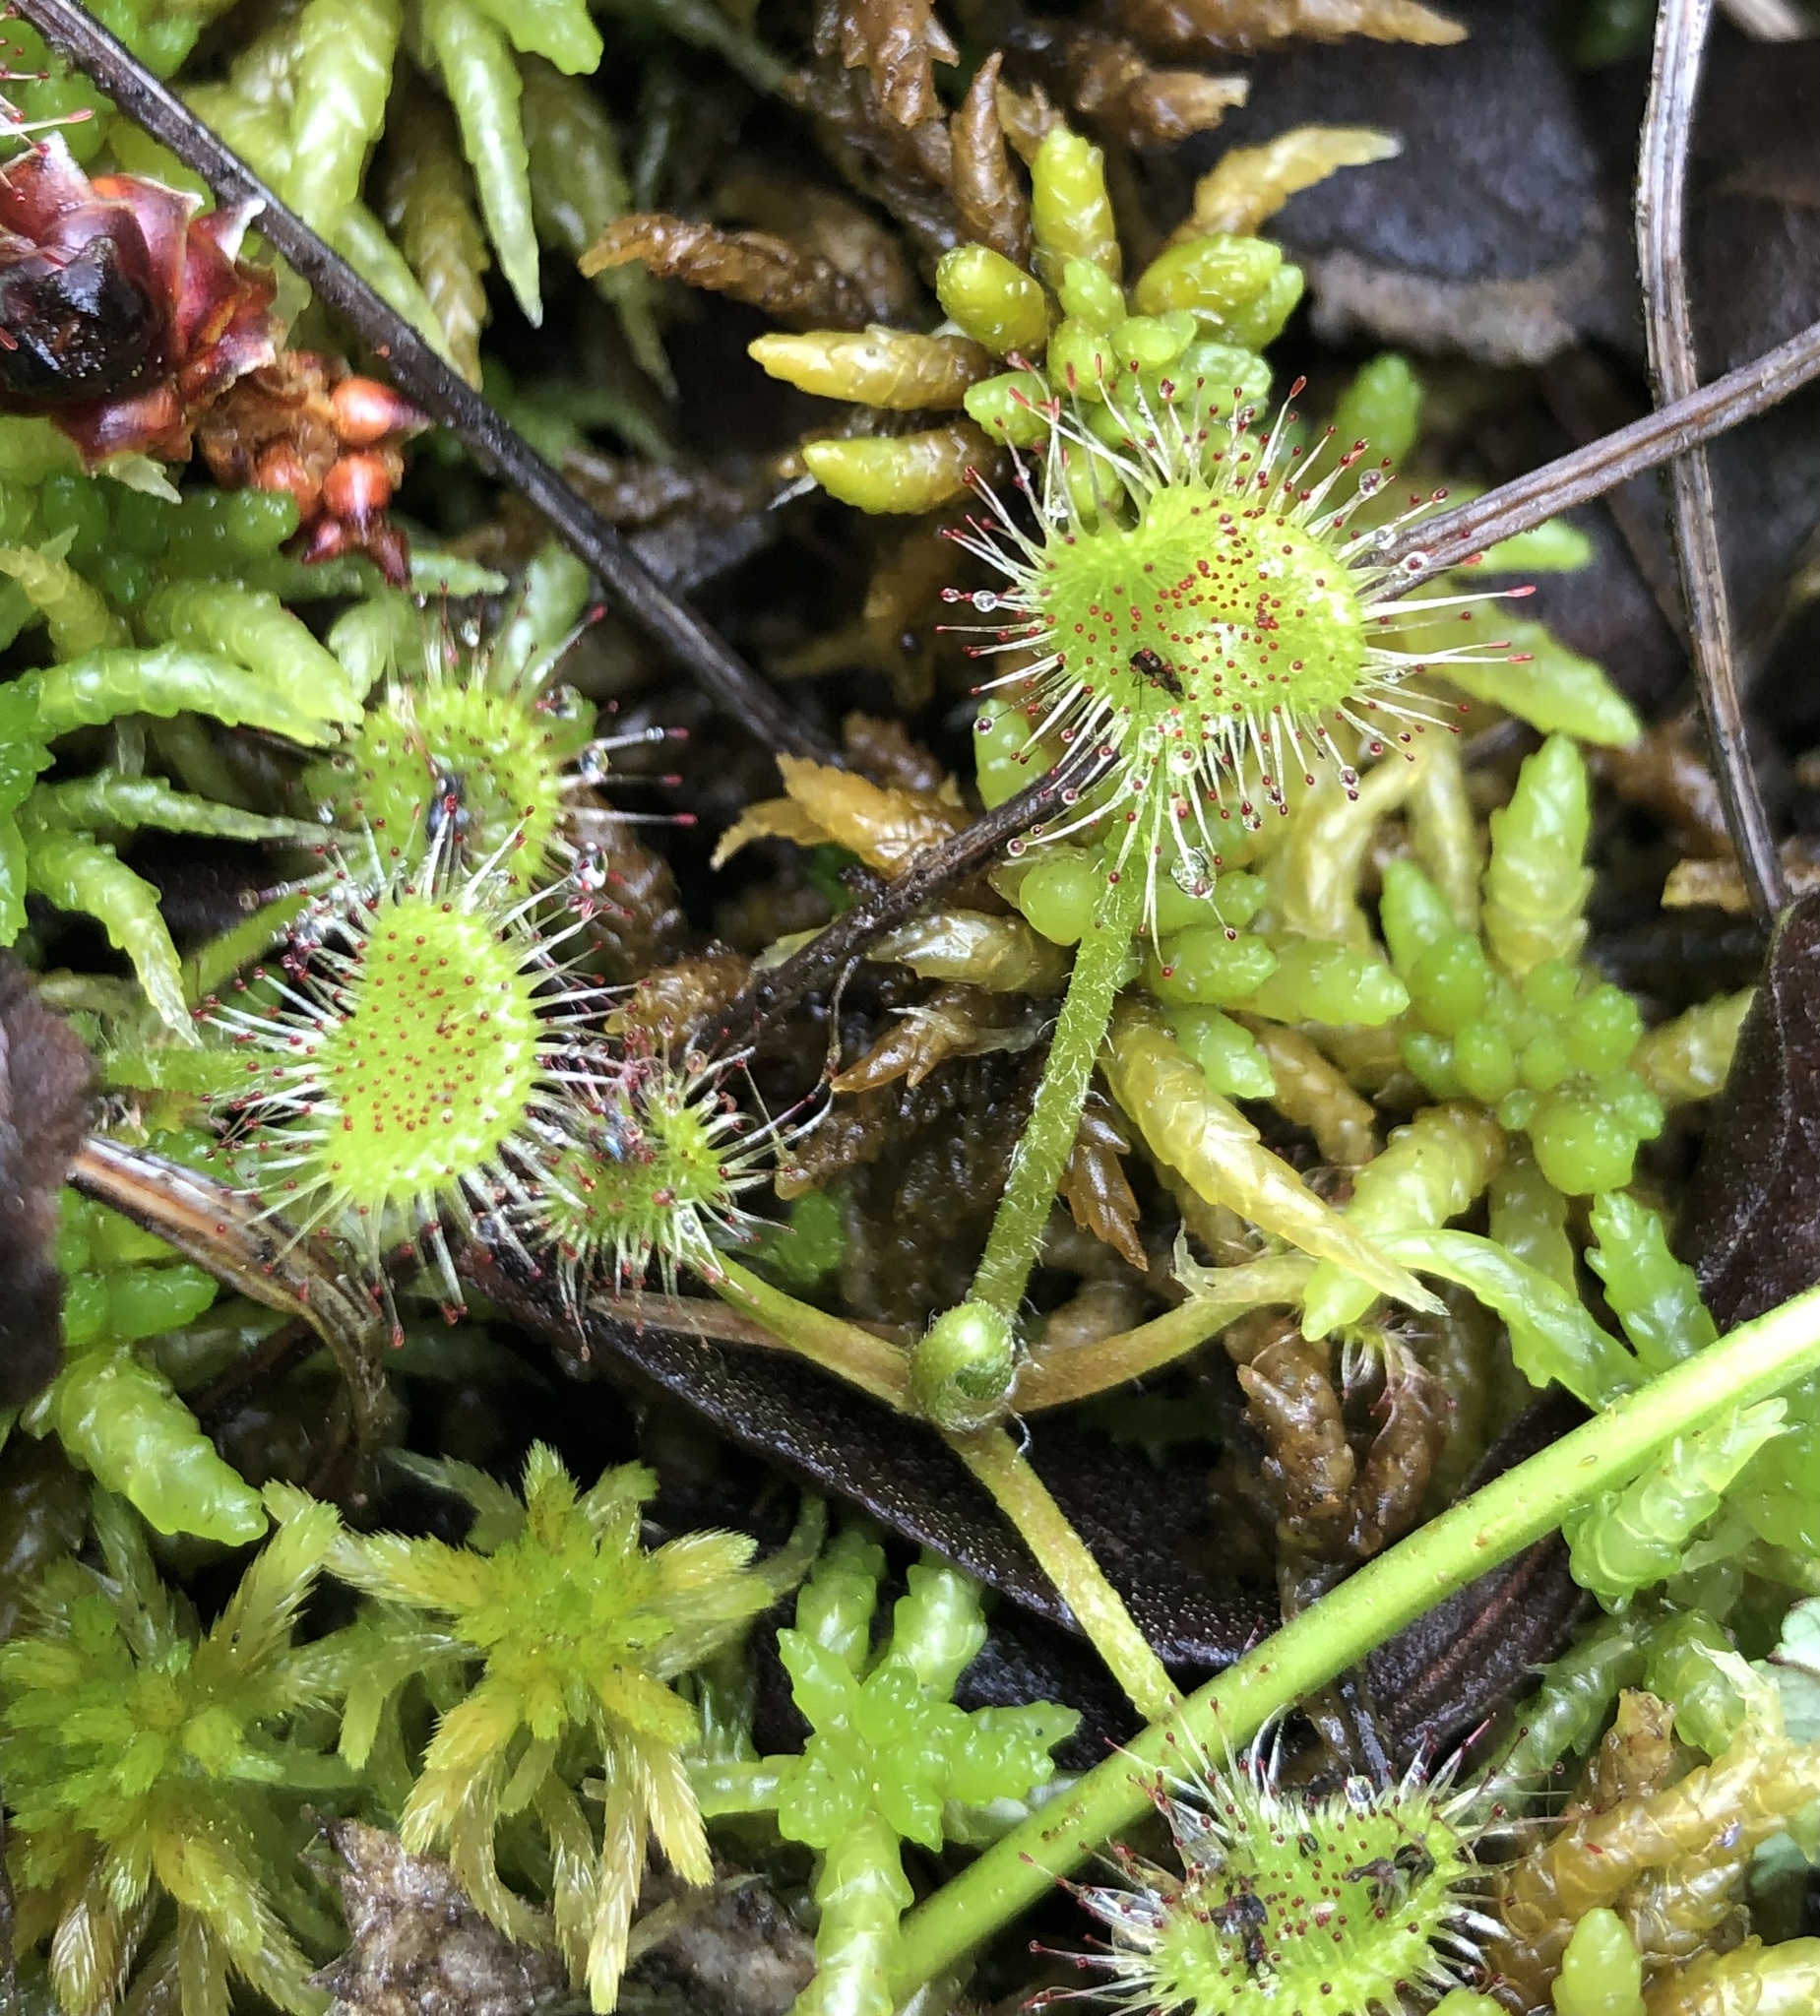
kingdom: Plantae
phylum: Tracheophyta
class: Magnoliopsida
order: Caryophyllales
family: Droseraceae
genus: Drosera
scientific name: Drosera rotundifolia
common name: Round-leaved sundew
